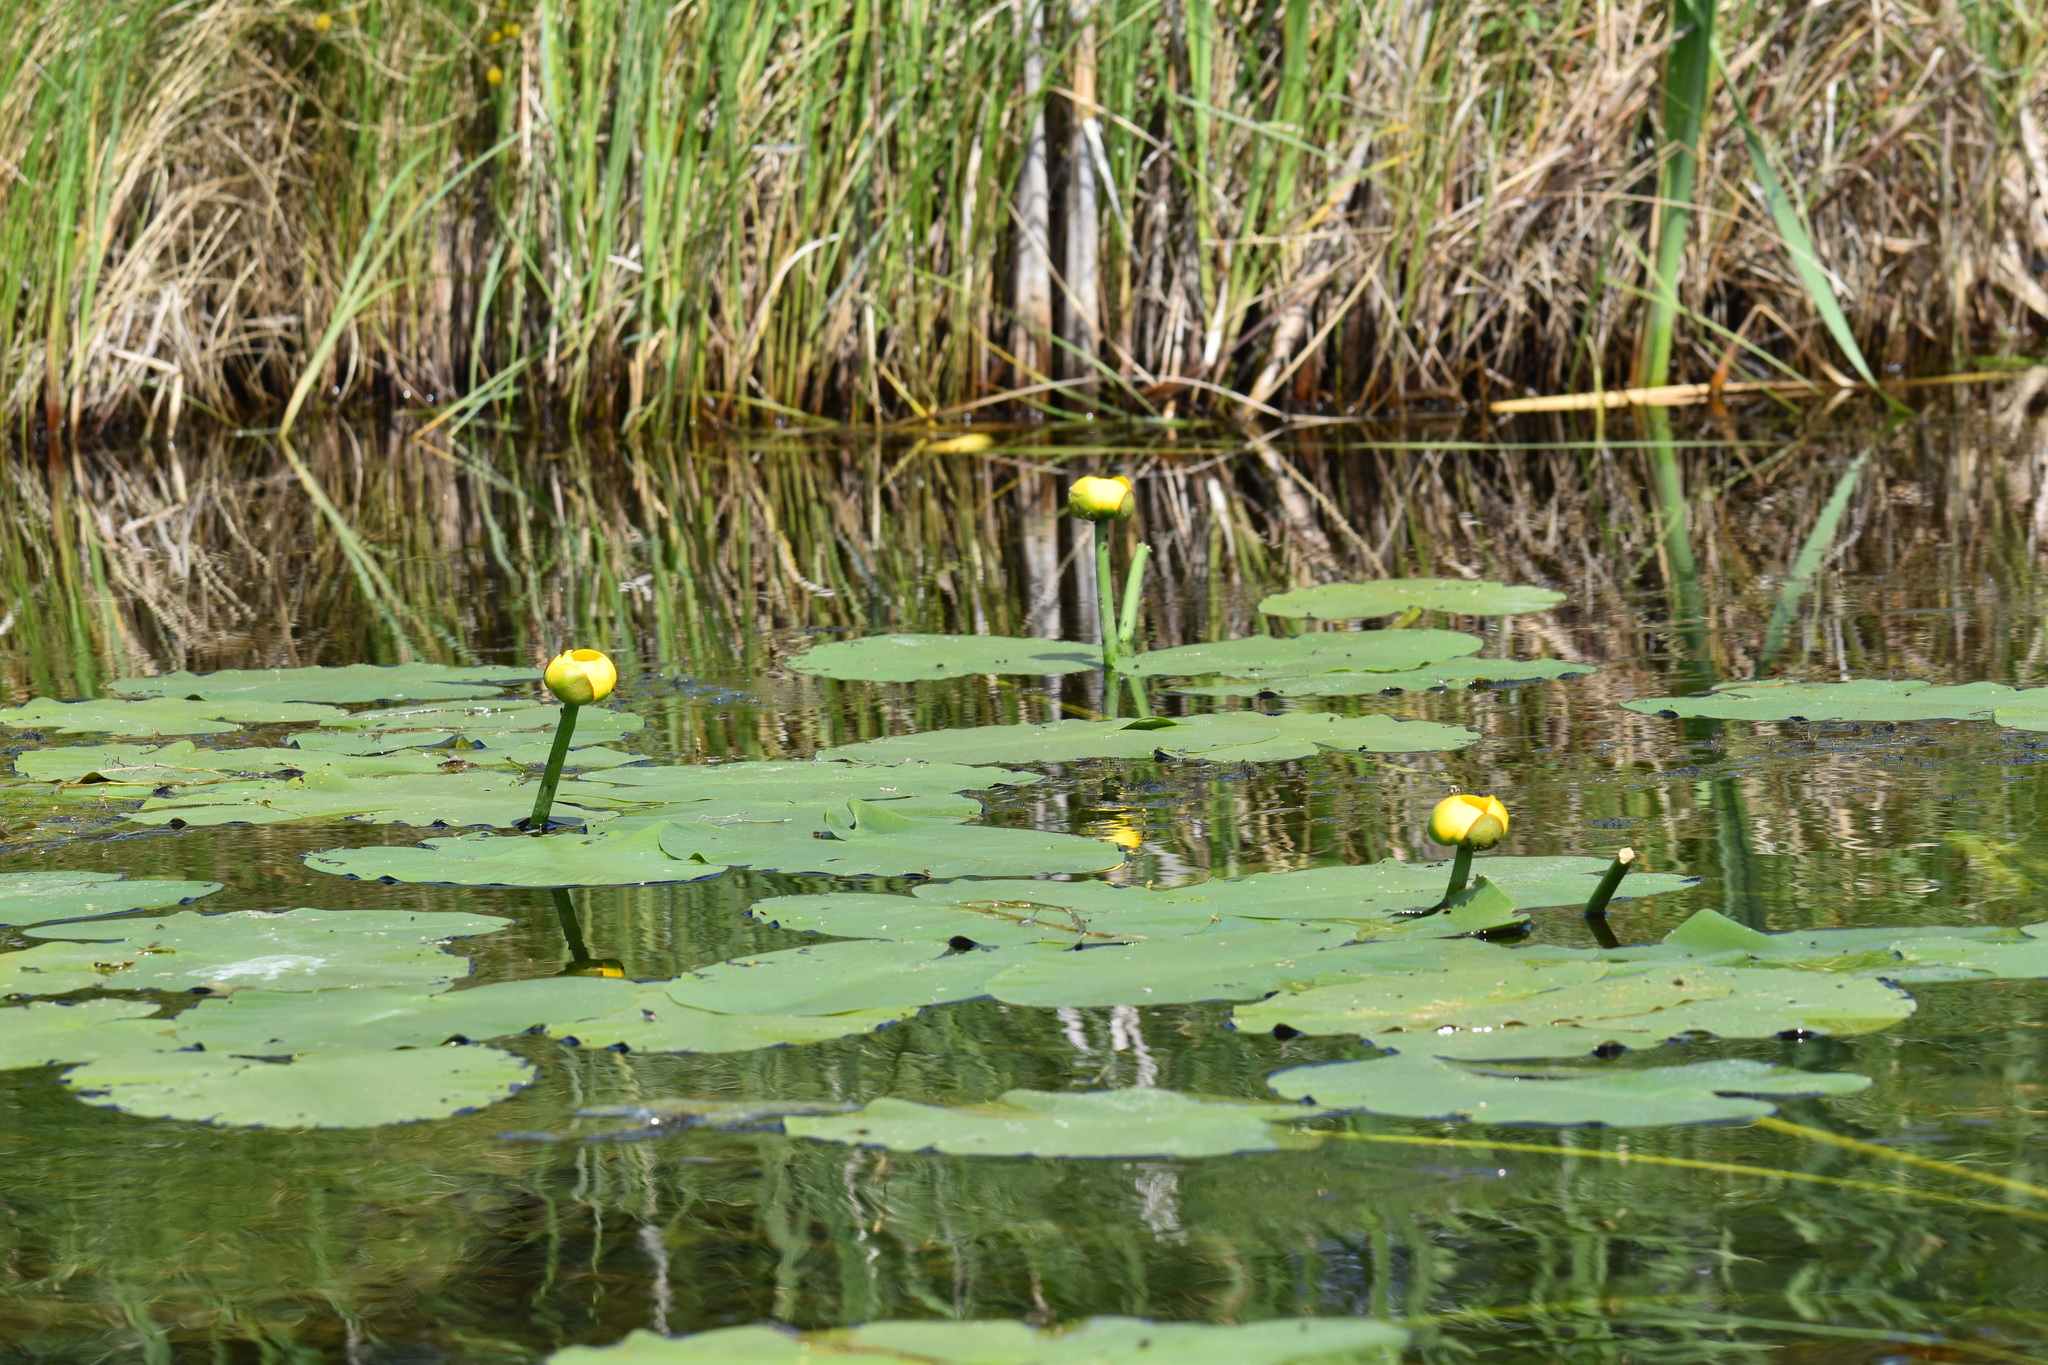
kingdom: Plantae
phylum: Tracheophyta
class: Magnoliopsida
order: Nymphaeales
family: Nymphaeaceae
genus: Nuphar
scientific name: Nuphar variegata
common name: Beaver-root
